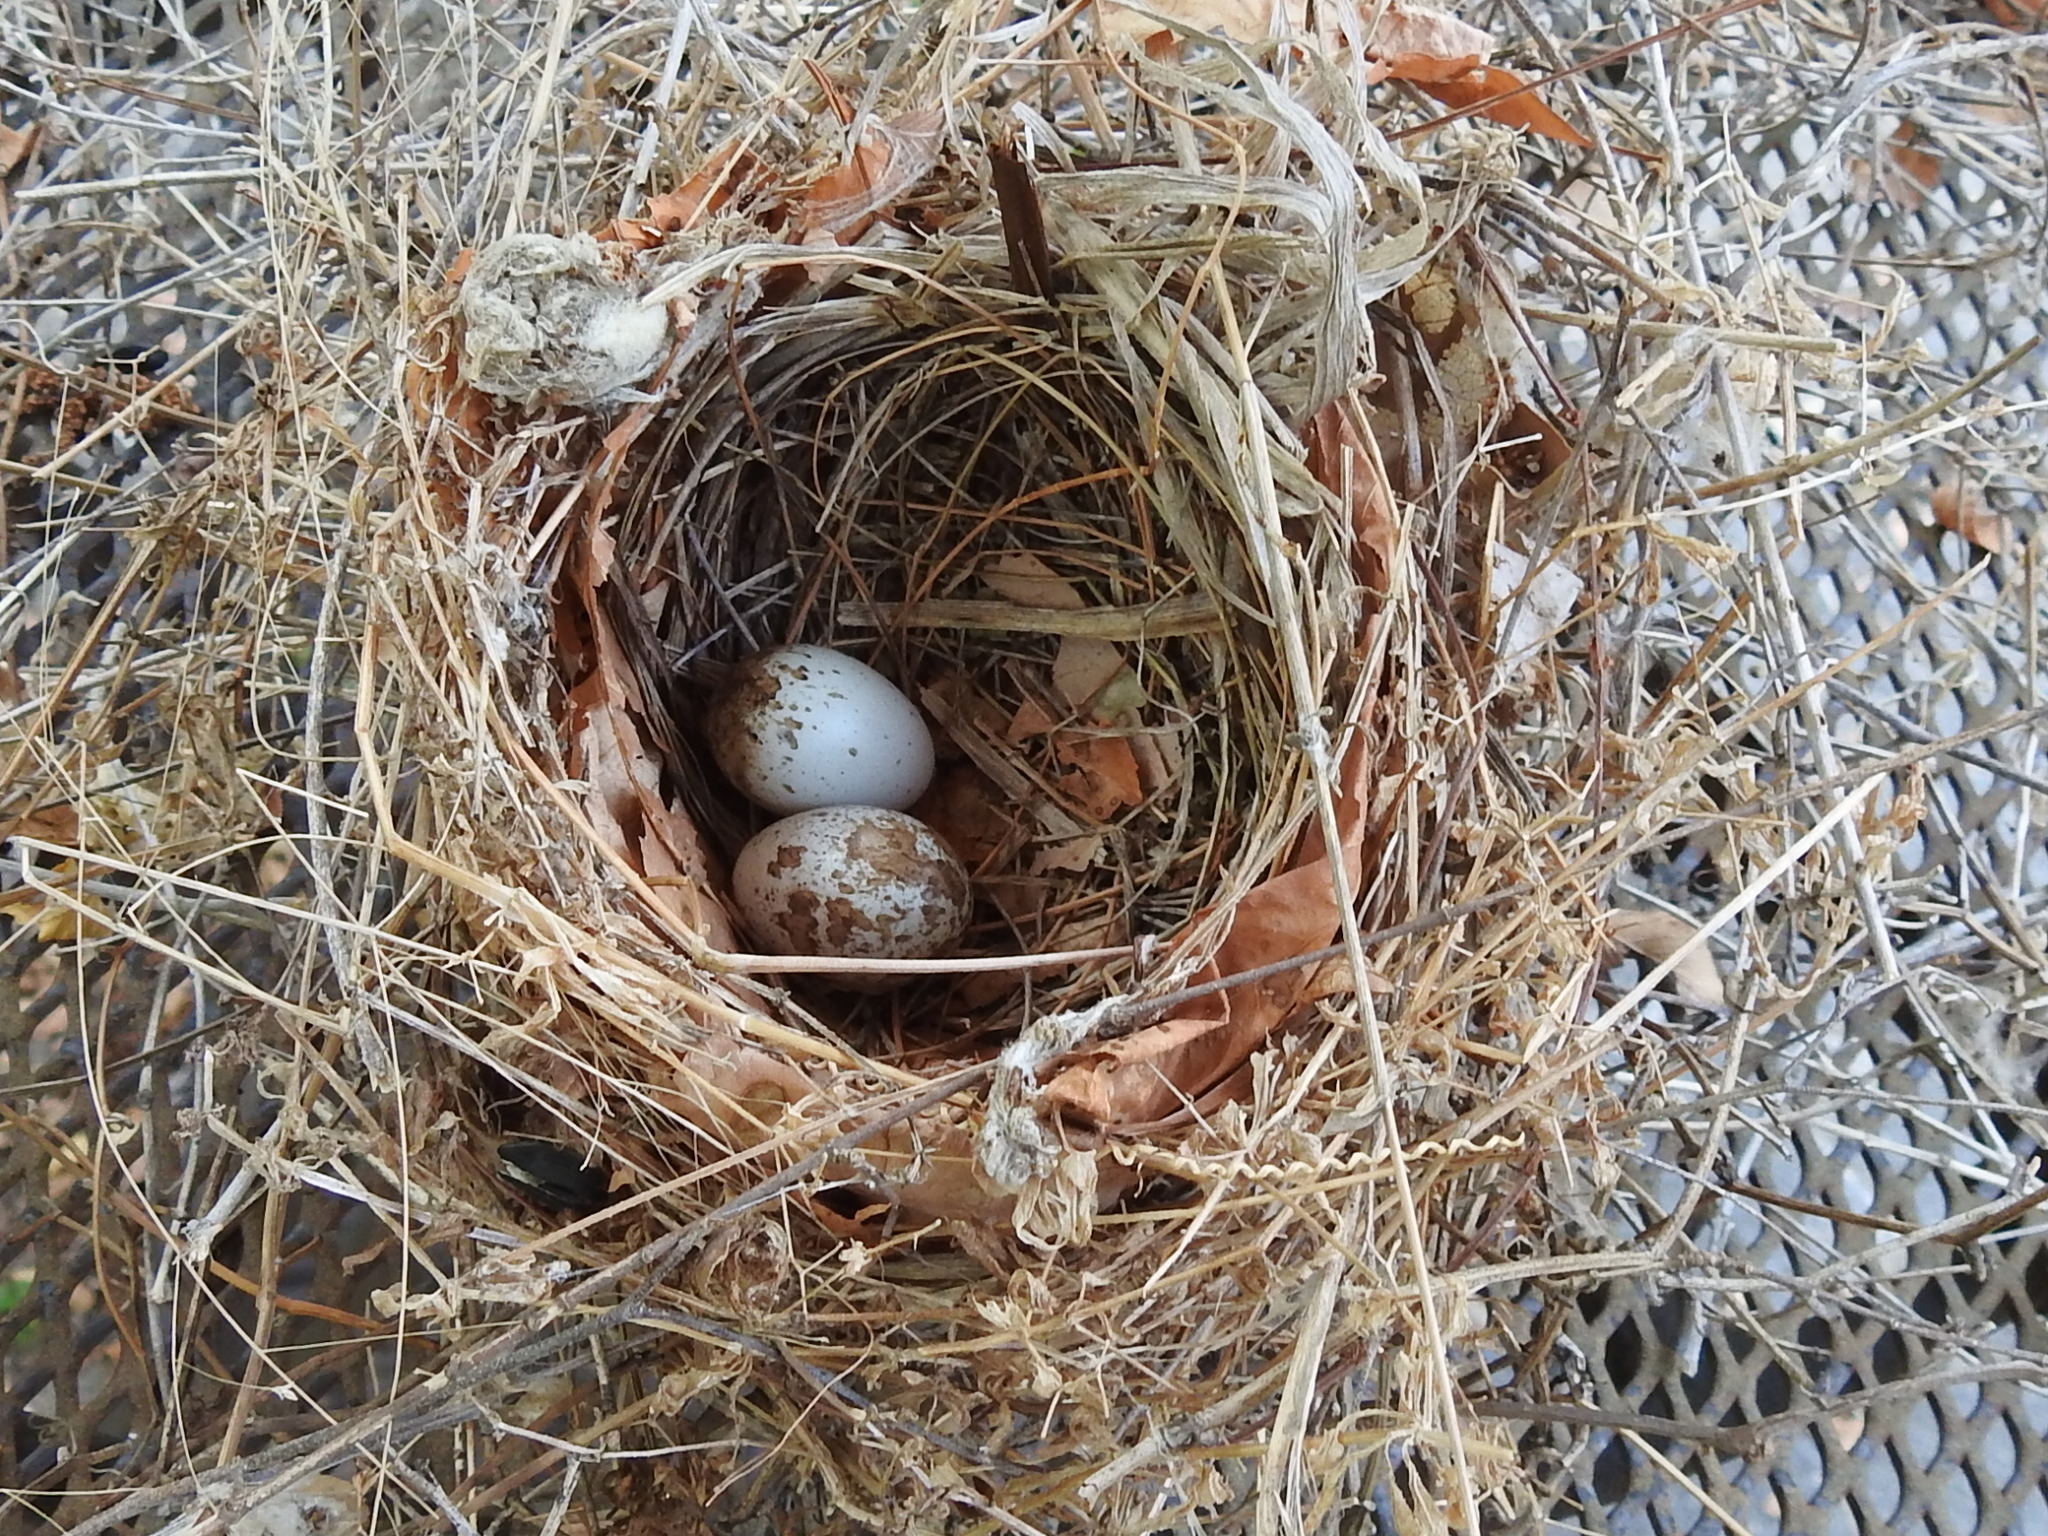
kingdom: Animalia
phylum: Chordata
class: Aves
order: Passeriformes
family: Cardinalidae
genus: Cardinalis
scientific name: Cardinalis cardinalis
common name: Northern cardinal
